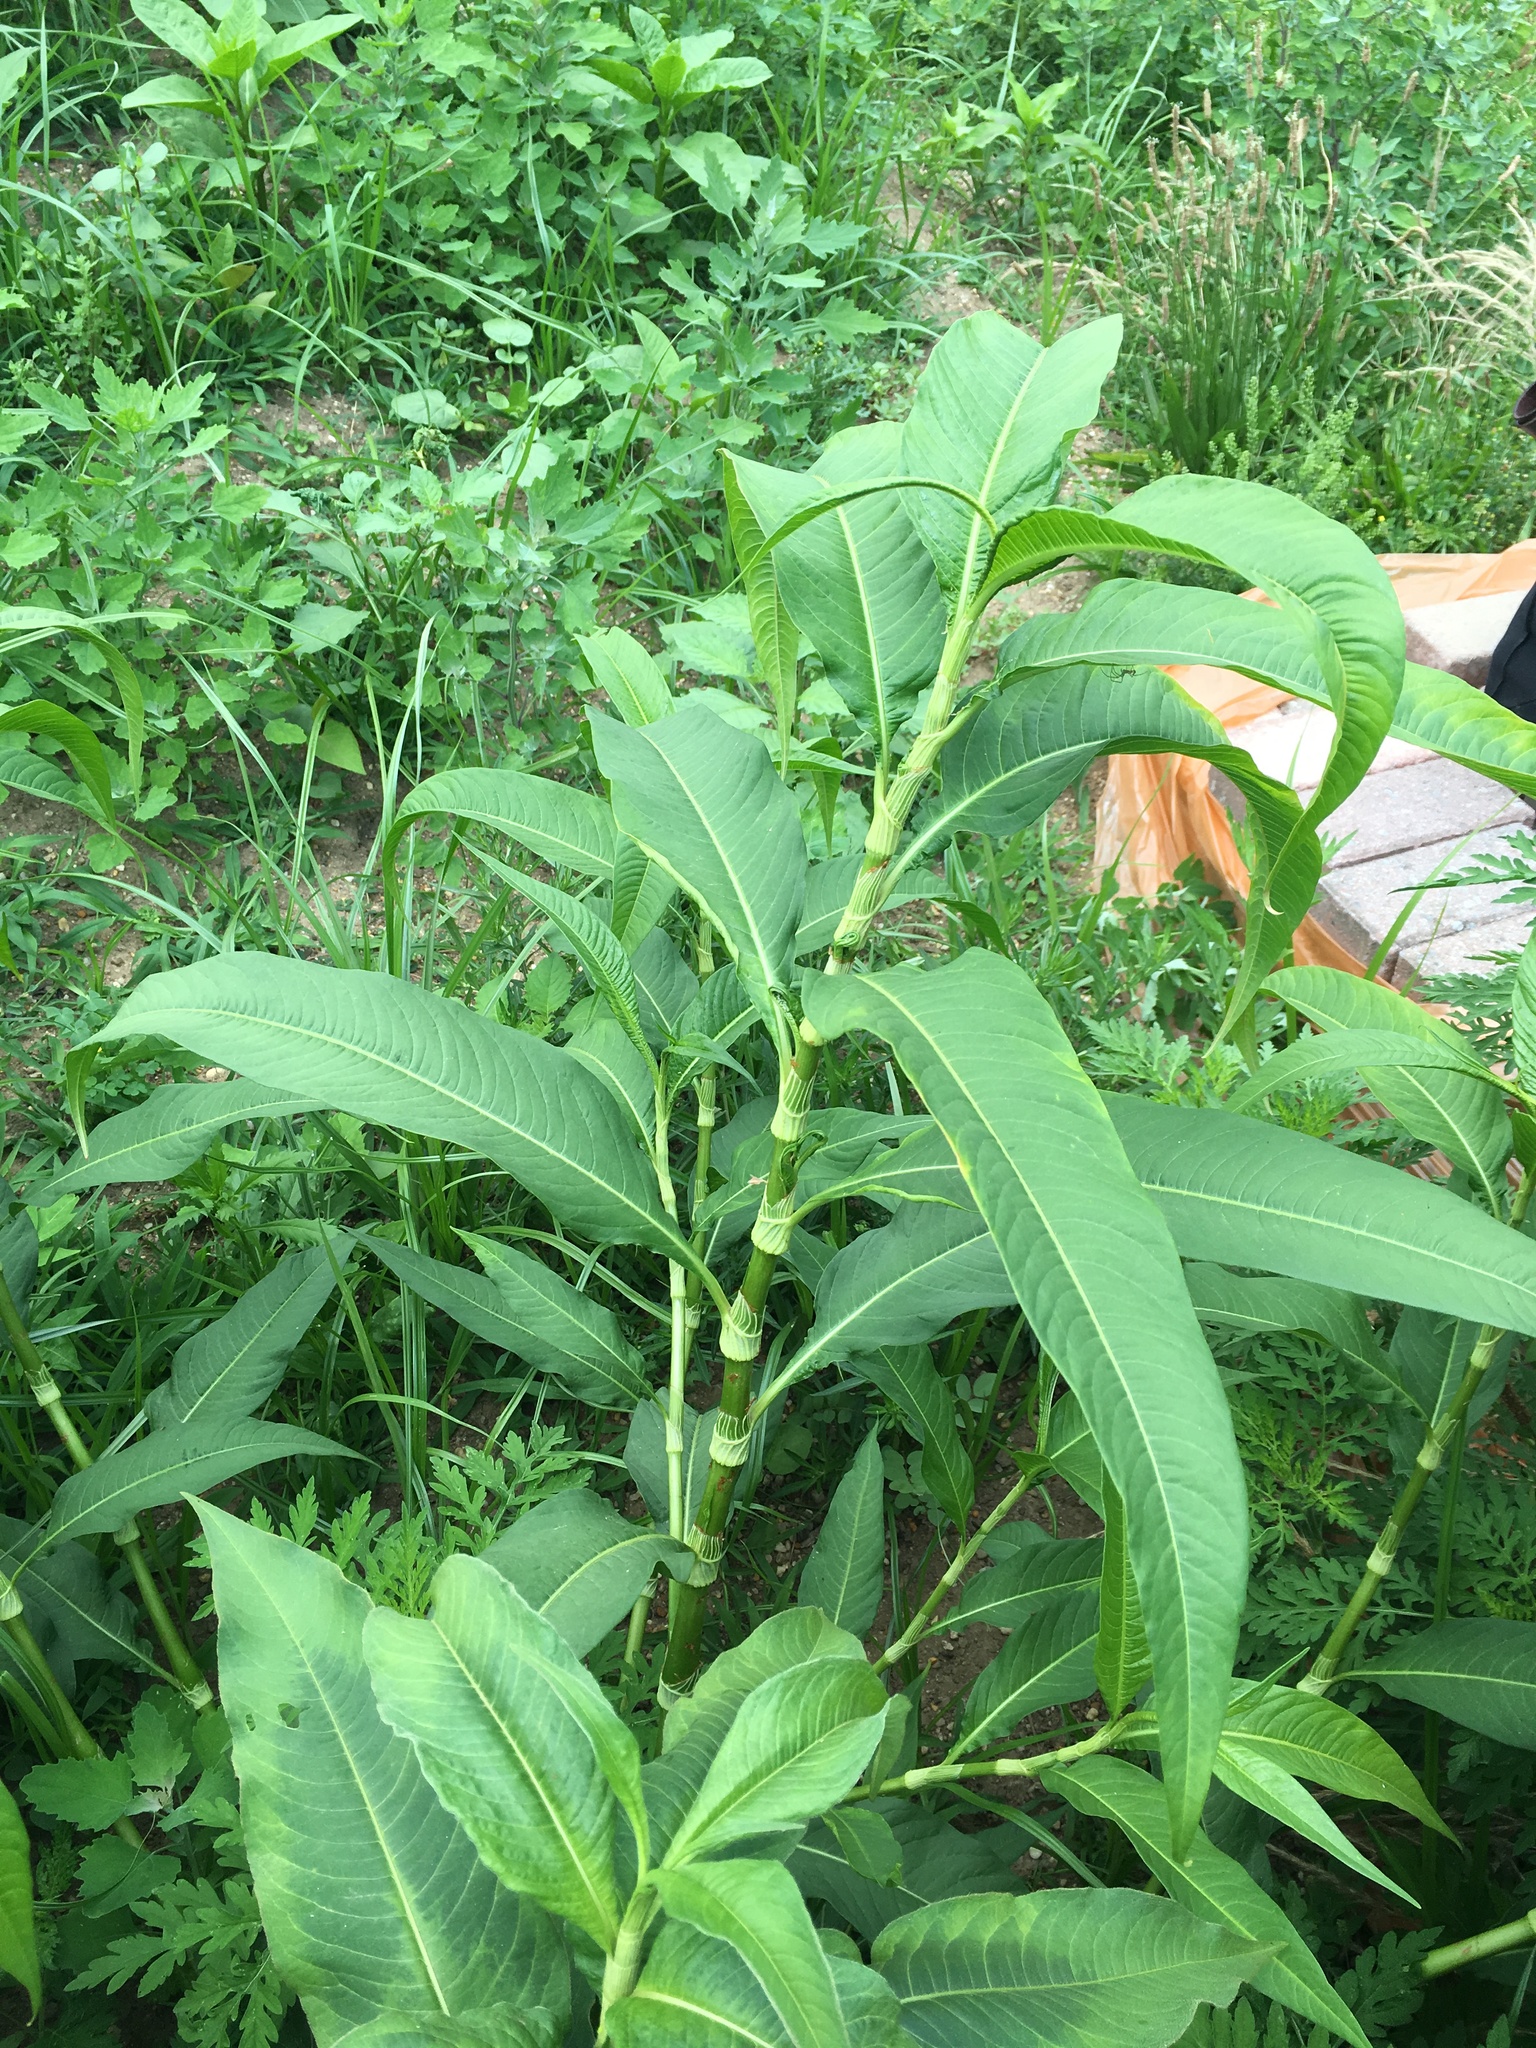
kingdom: Plantae
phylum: Tracheophyta
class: Magnoliopsida
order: Caryophyllales
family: Polygonaceae
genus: Persicaria
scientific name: Persicaria lapathifolia
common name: Curlytop knotweed
